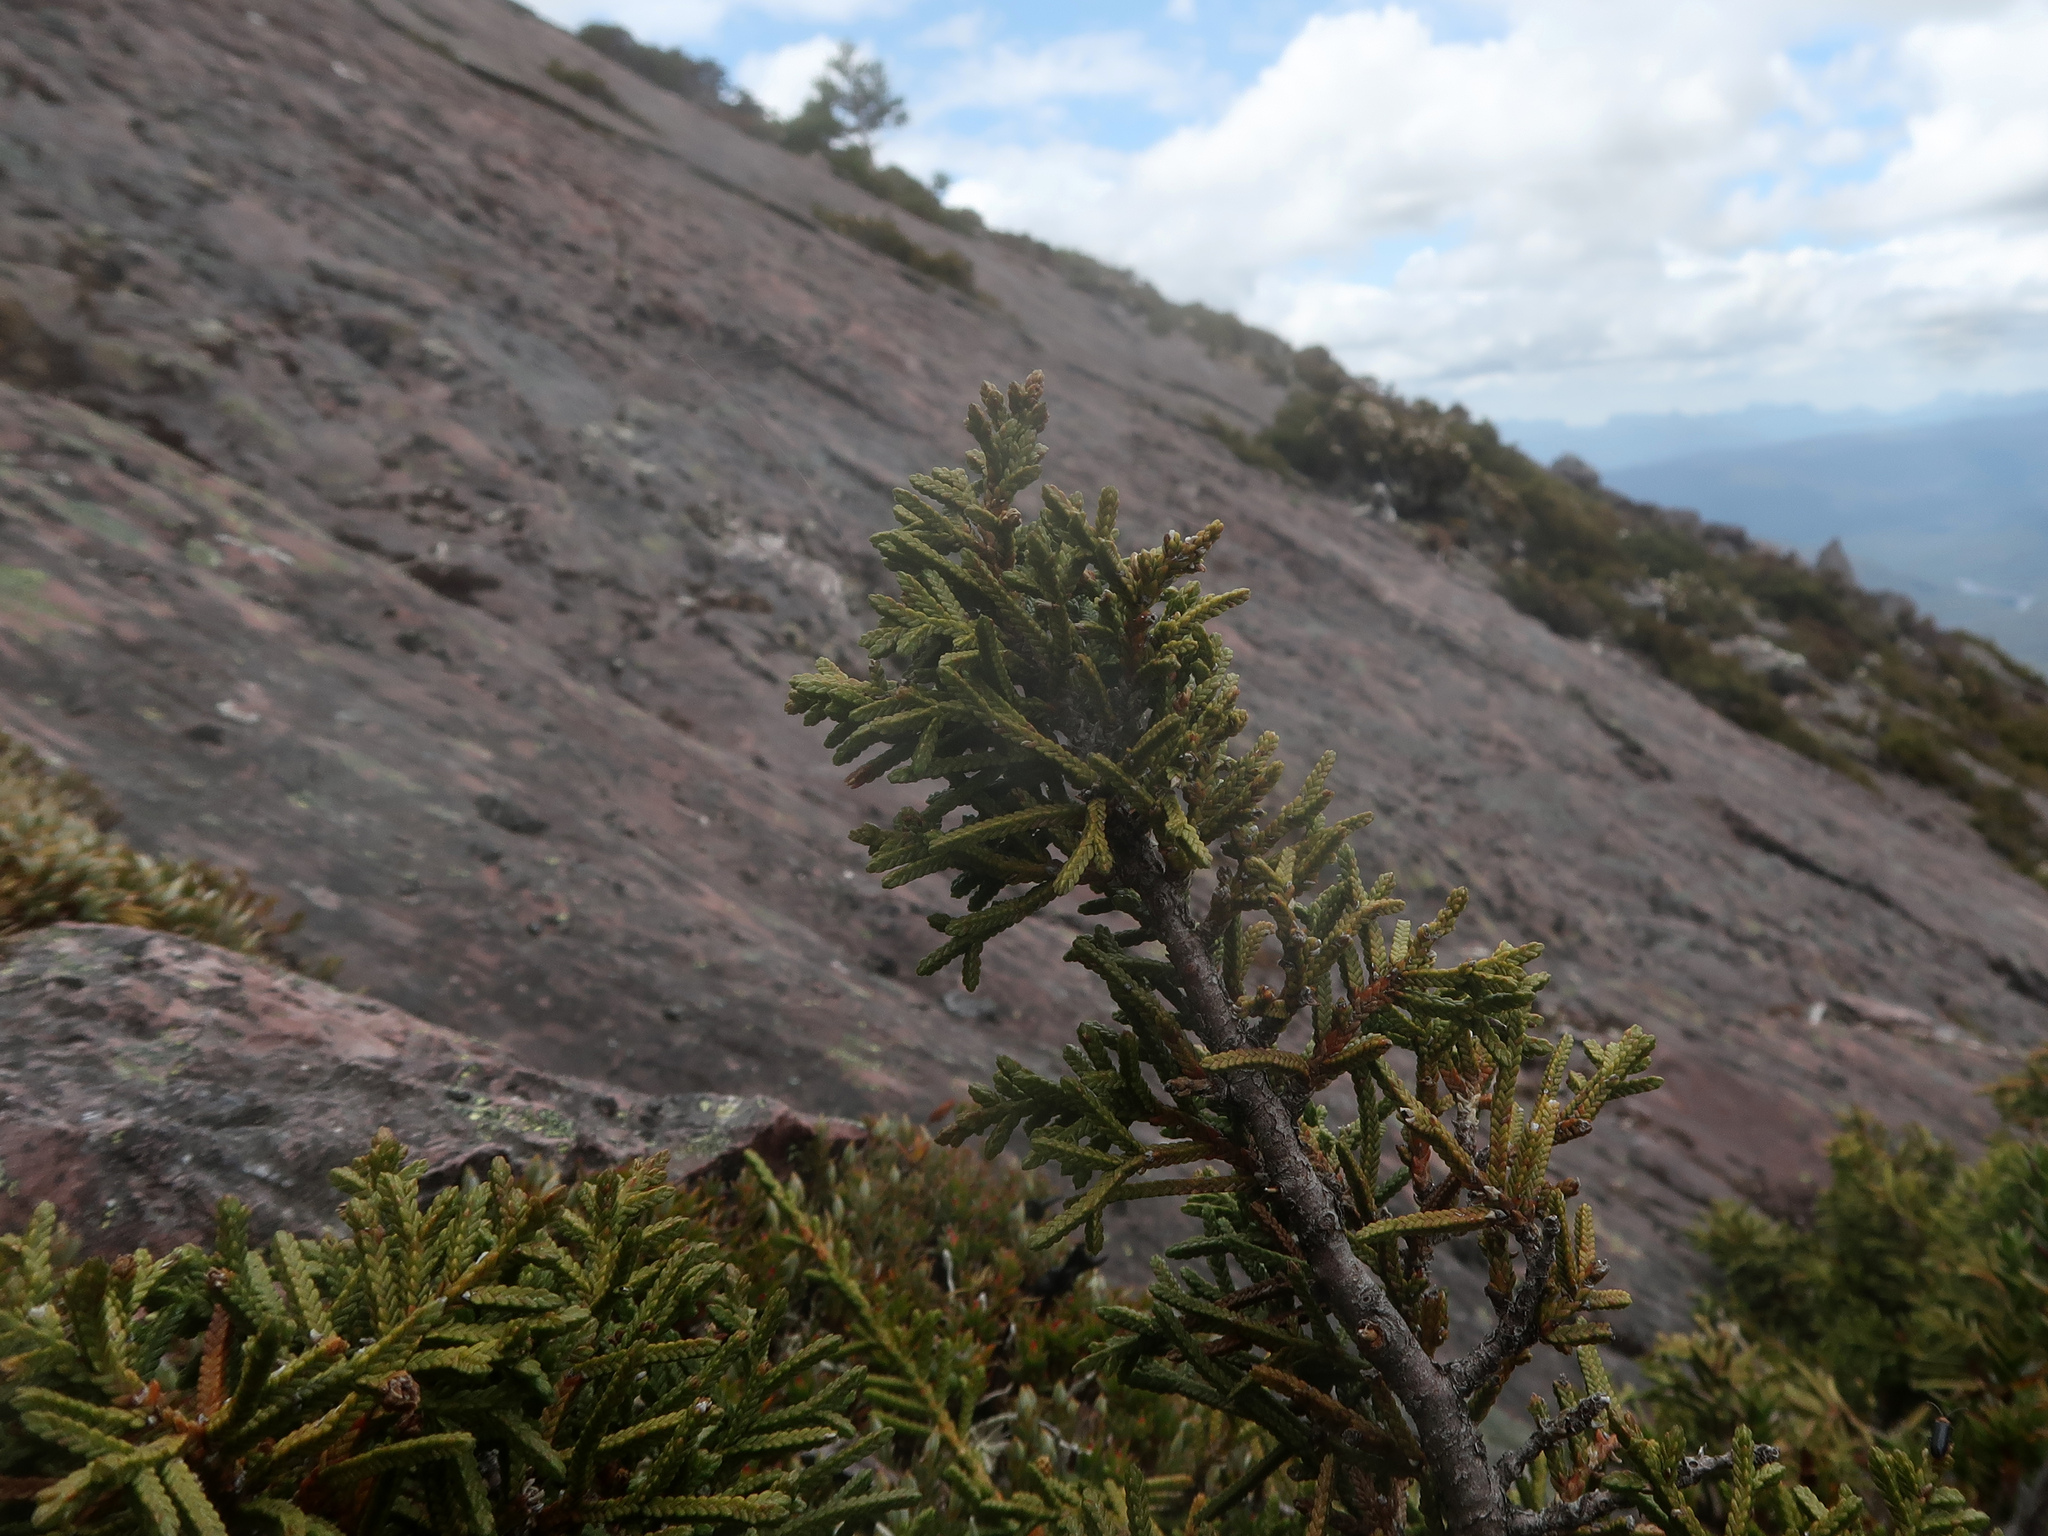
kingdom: Plantae
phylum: Tracheophyta
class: Pinopsida
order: Pinales
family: Cupressaceae
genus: Diselma
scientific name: Diselma archeri
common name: Cheshunt pine
